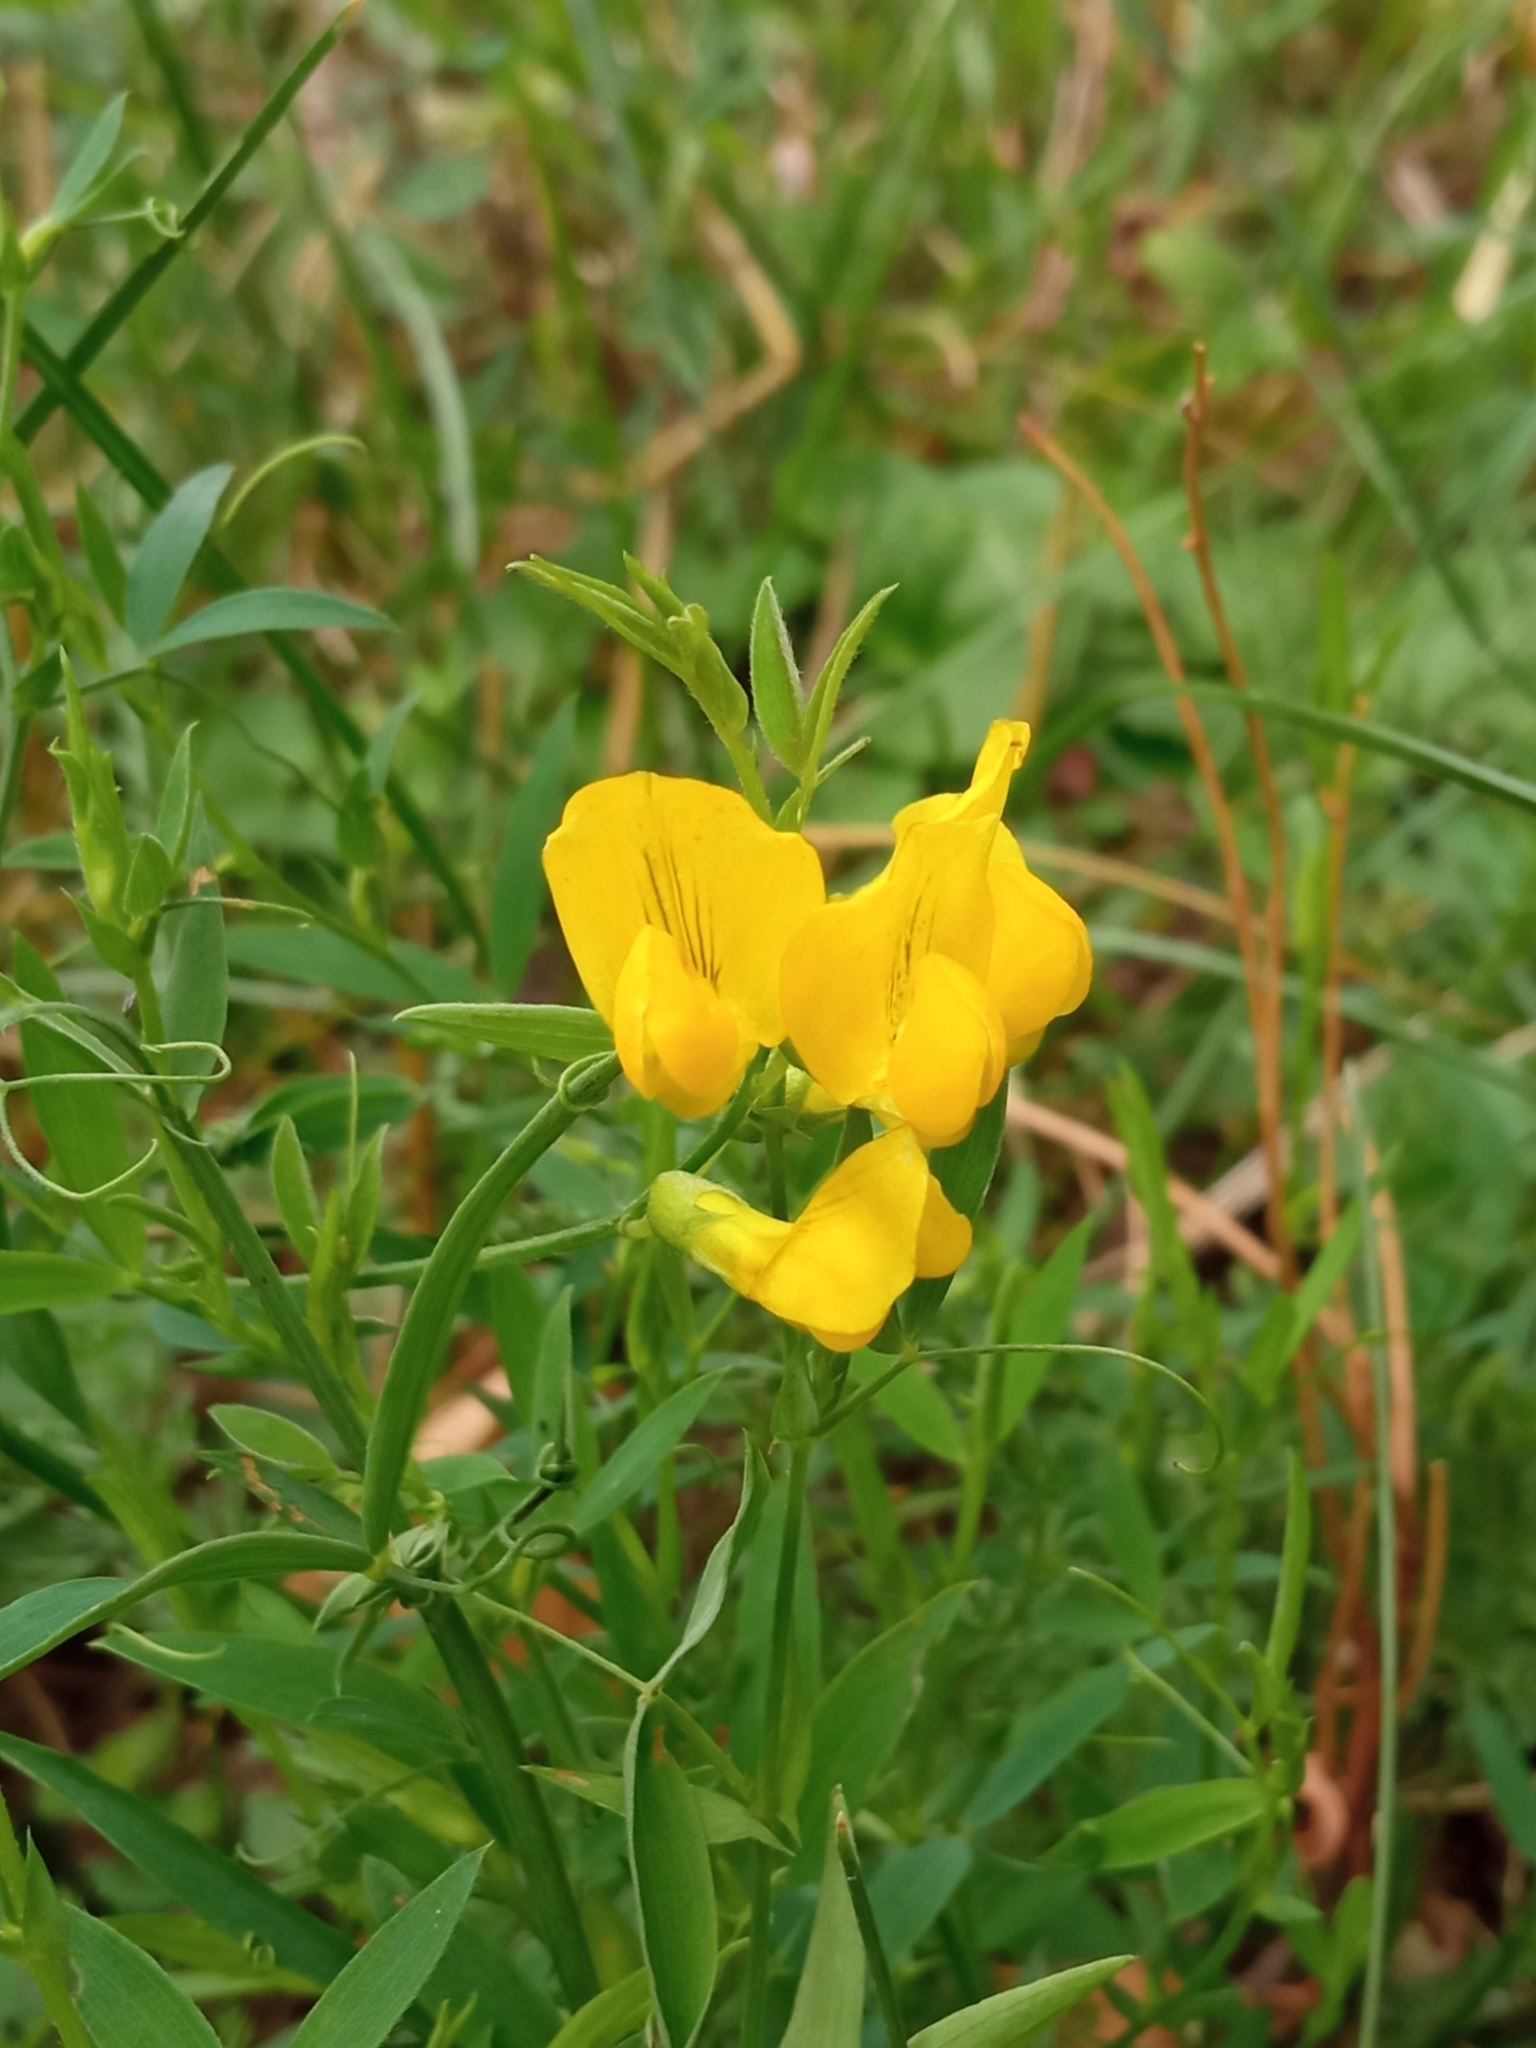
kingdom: Plantae
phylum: Tracheophyta
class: Magnoliopsida
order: Fabales
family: Fabaceae
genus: Lathyrus
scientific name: Lathyrus pratensis
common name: Meadow vetchling
